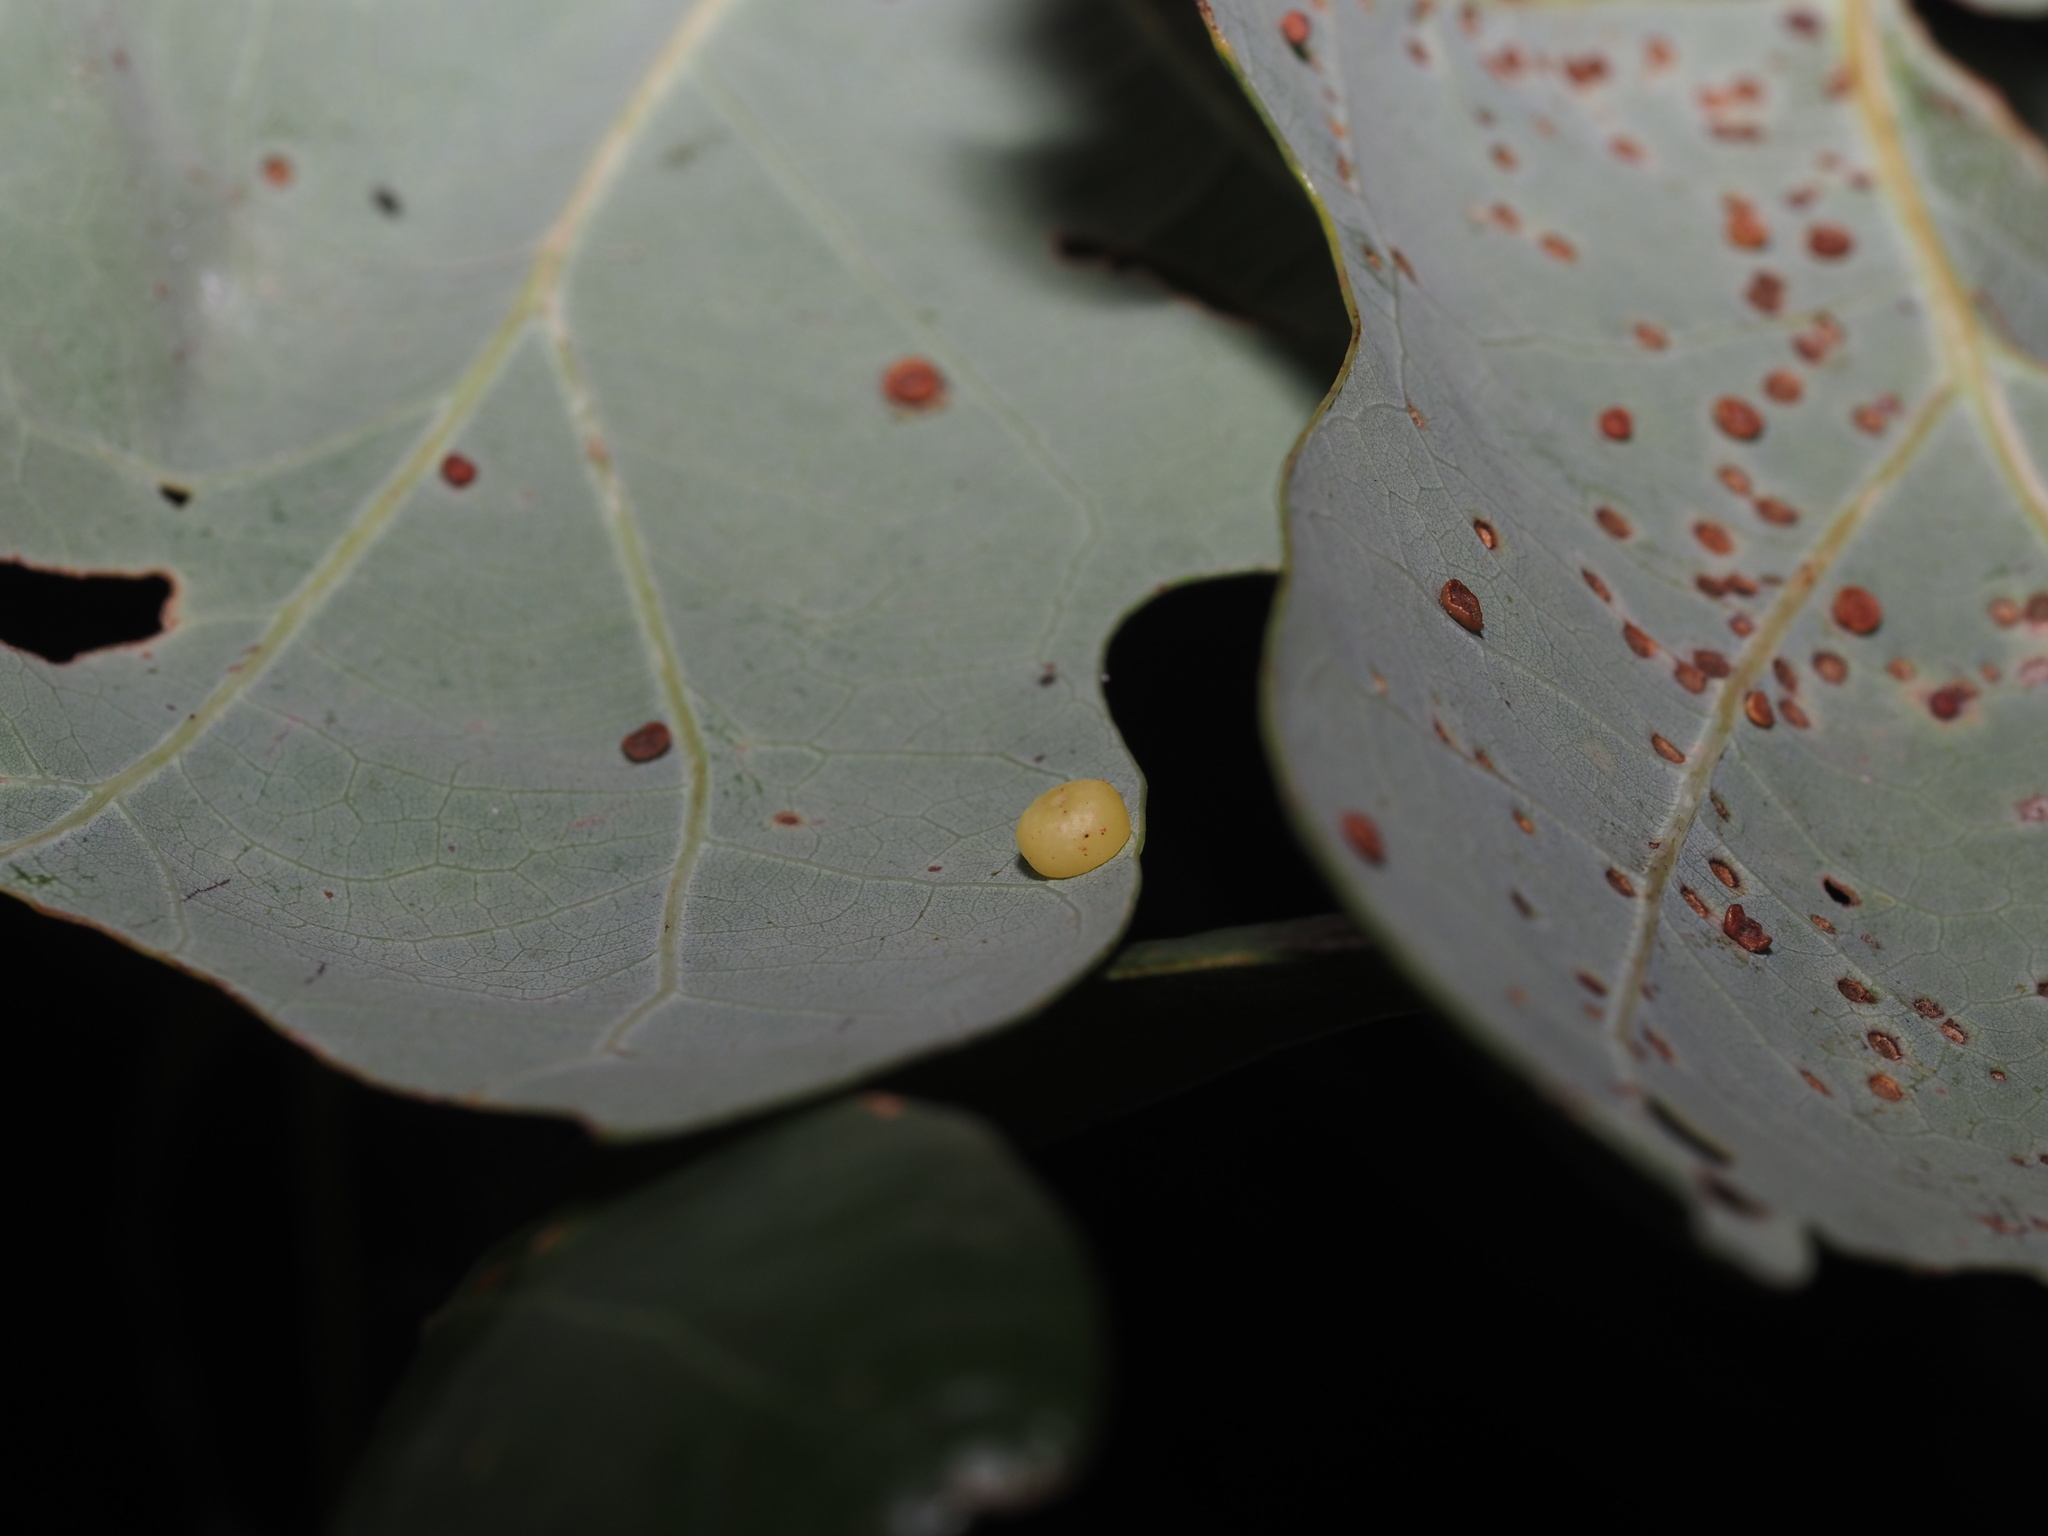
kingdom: Animalia
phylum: Arthropoda
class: Insecta
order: Hymenoptera
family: Cynipidae
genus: Andricus
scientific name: Andricus
